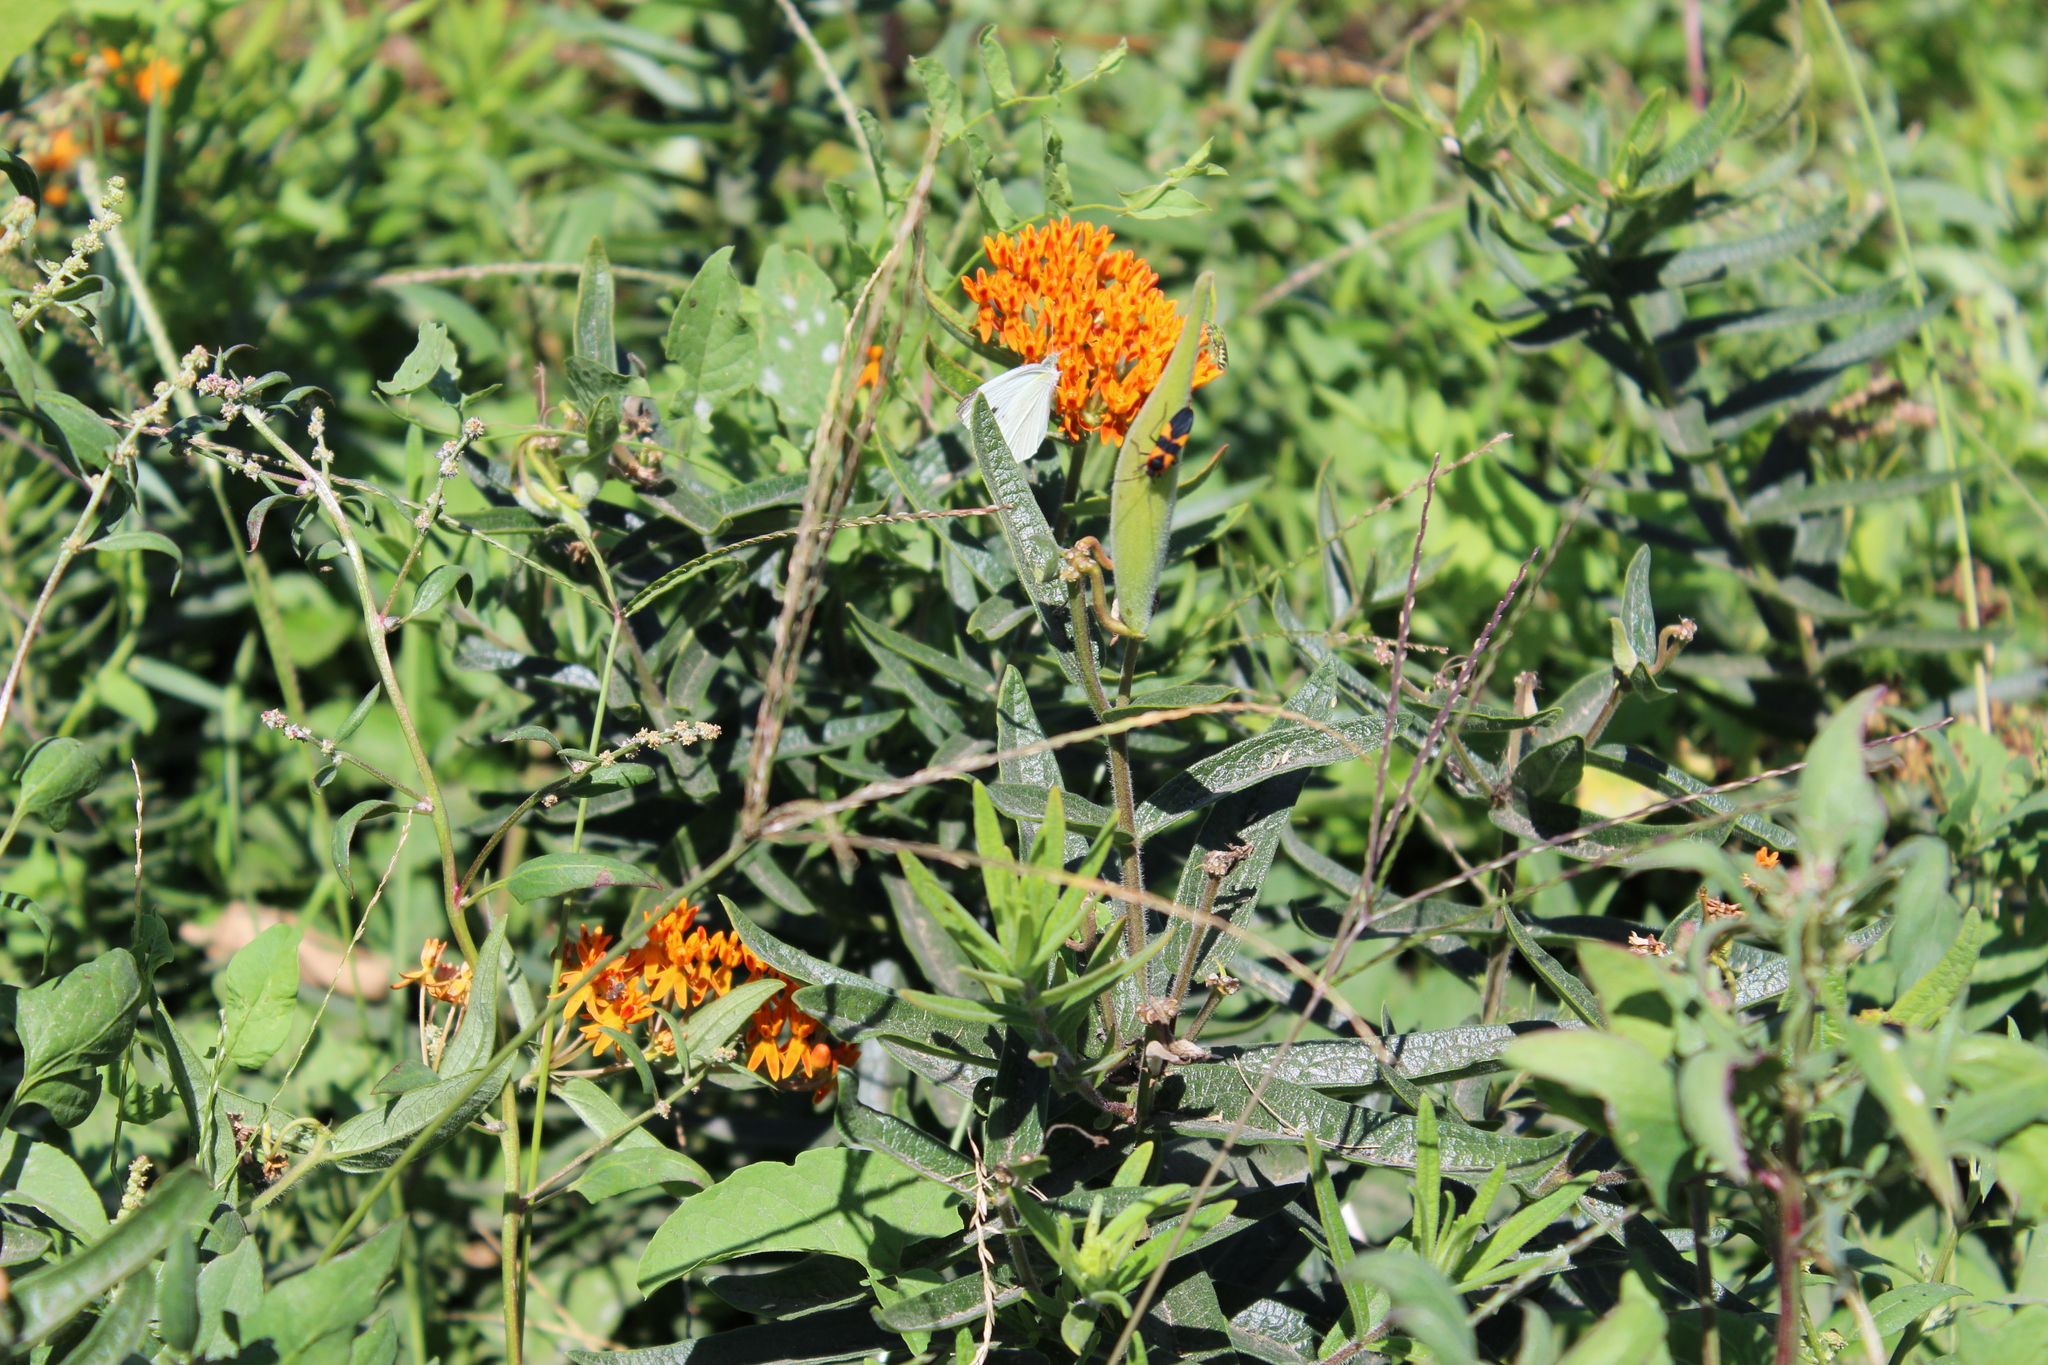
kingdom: Animalia
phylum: Arthropoda
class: Insecta
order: Lepidoptera
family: Pieridae
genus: Pieris
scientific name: Pieris rapae
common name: Small white
